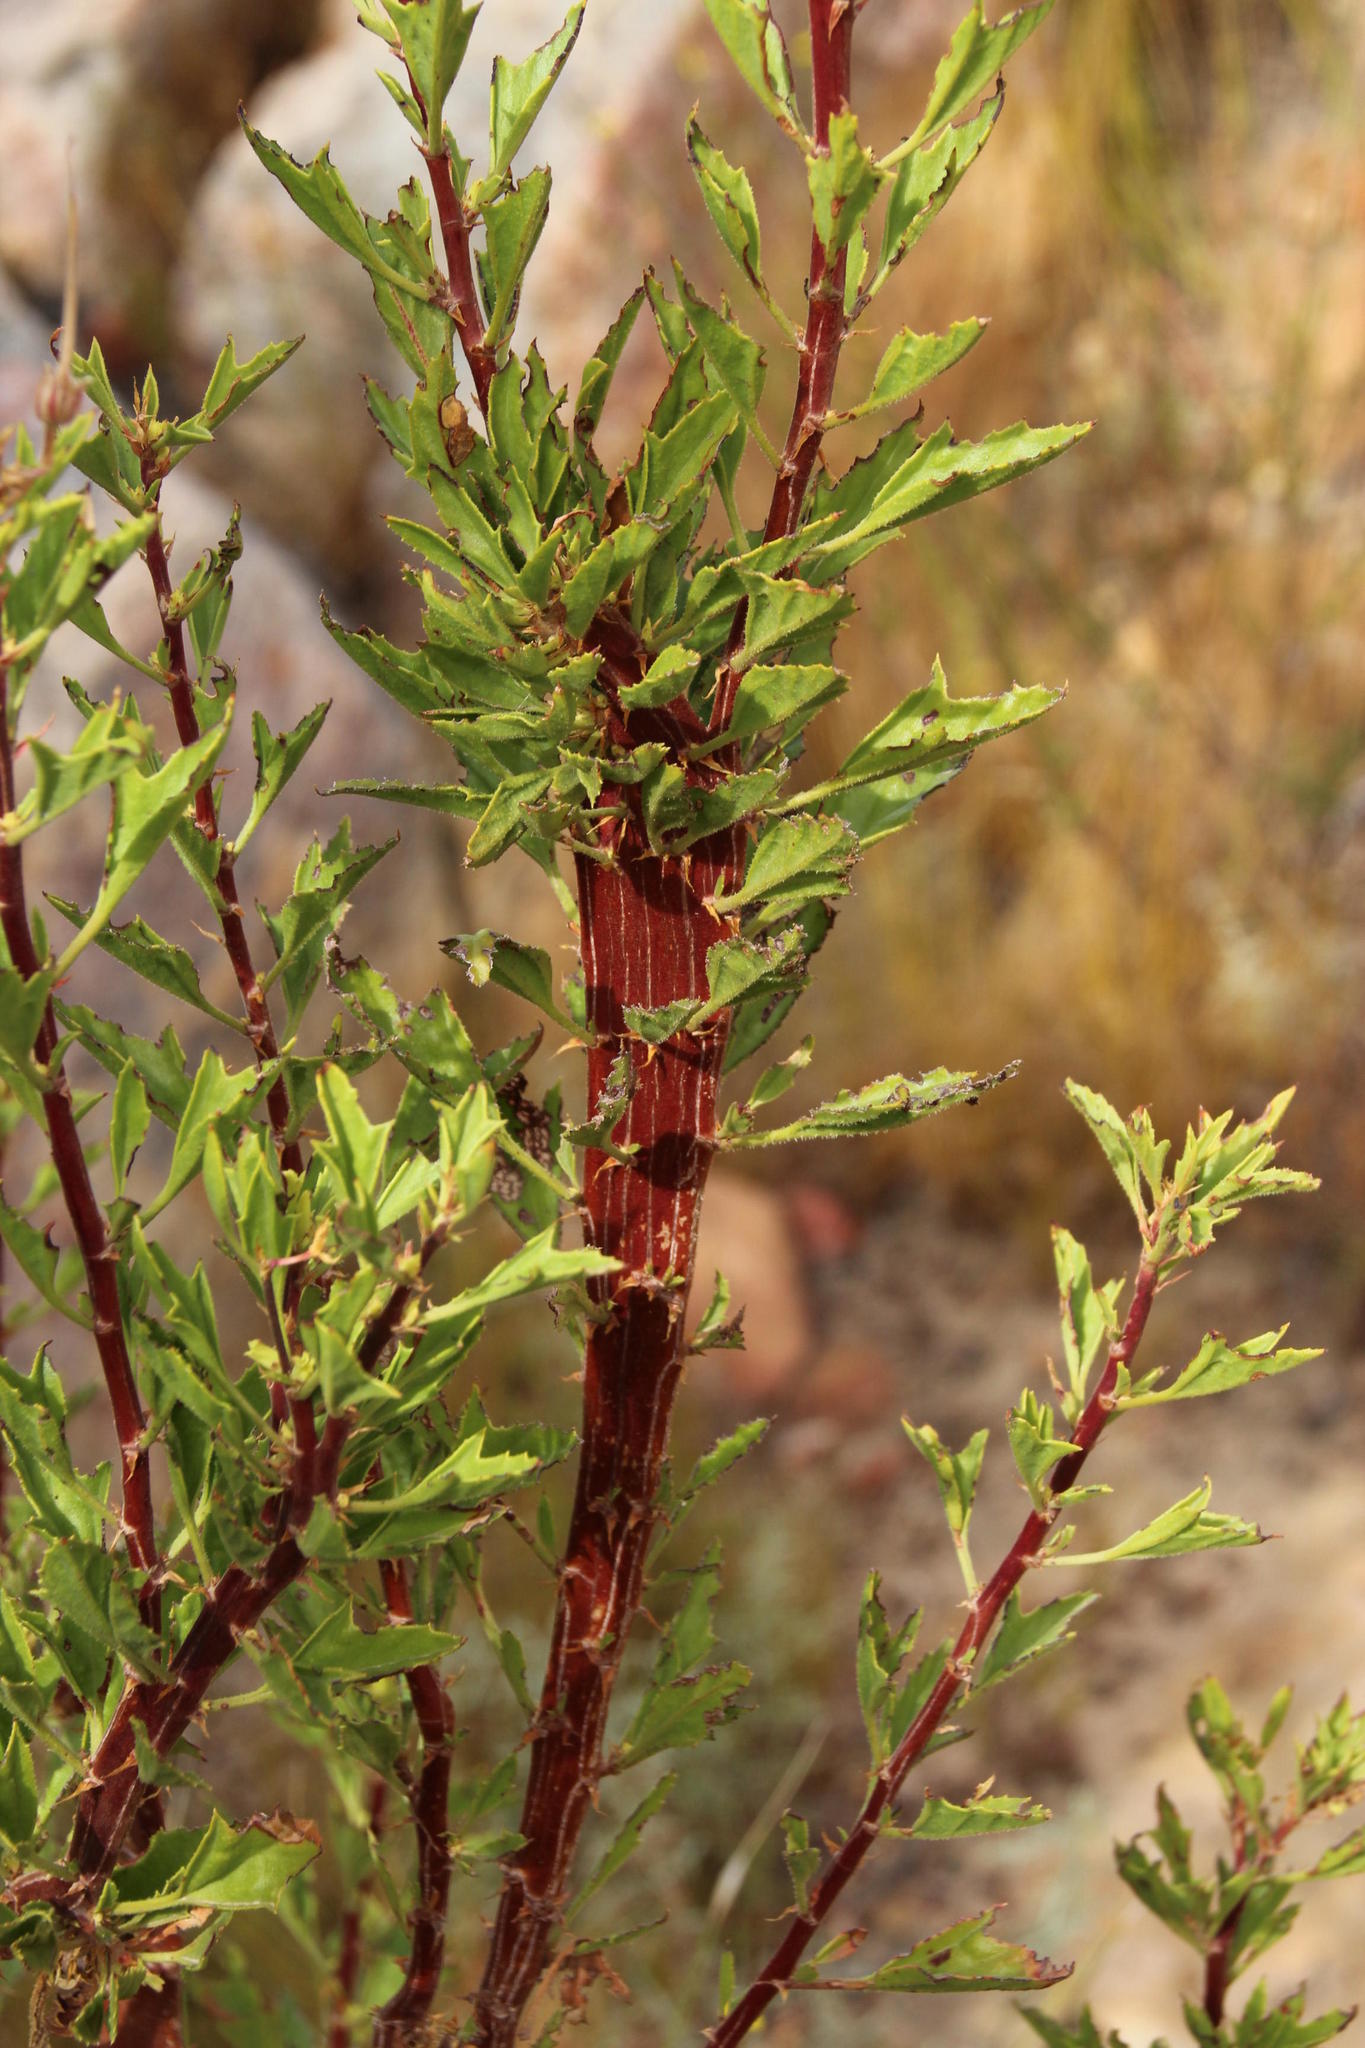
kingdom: Plantae
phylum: Tracheophyta
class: Magnoliopsida
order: Geraniales
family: Geraniaceae
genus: Pelargonium
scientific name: Pelargonium scabrum
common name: Apricot geranium
